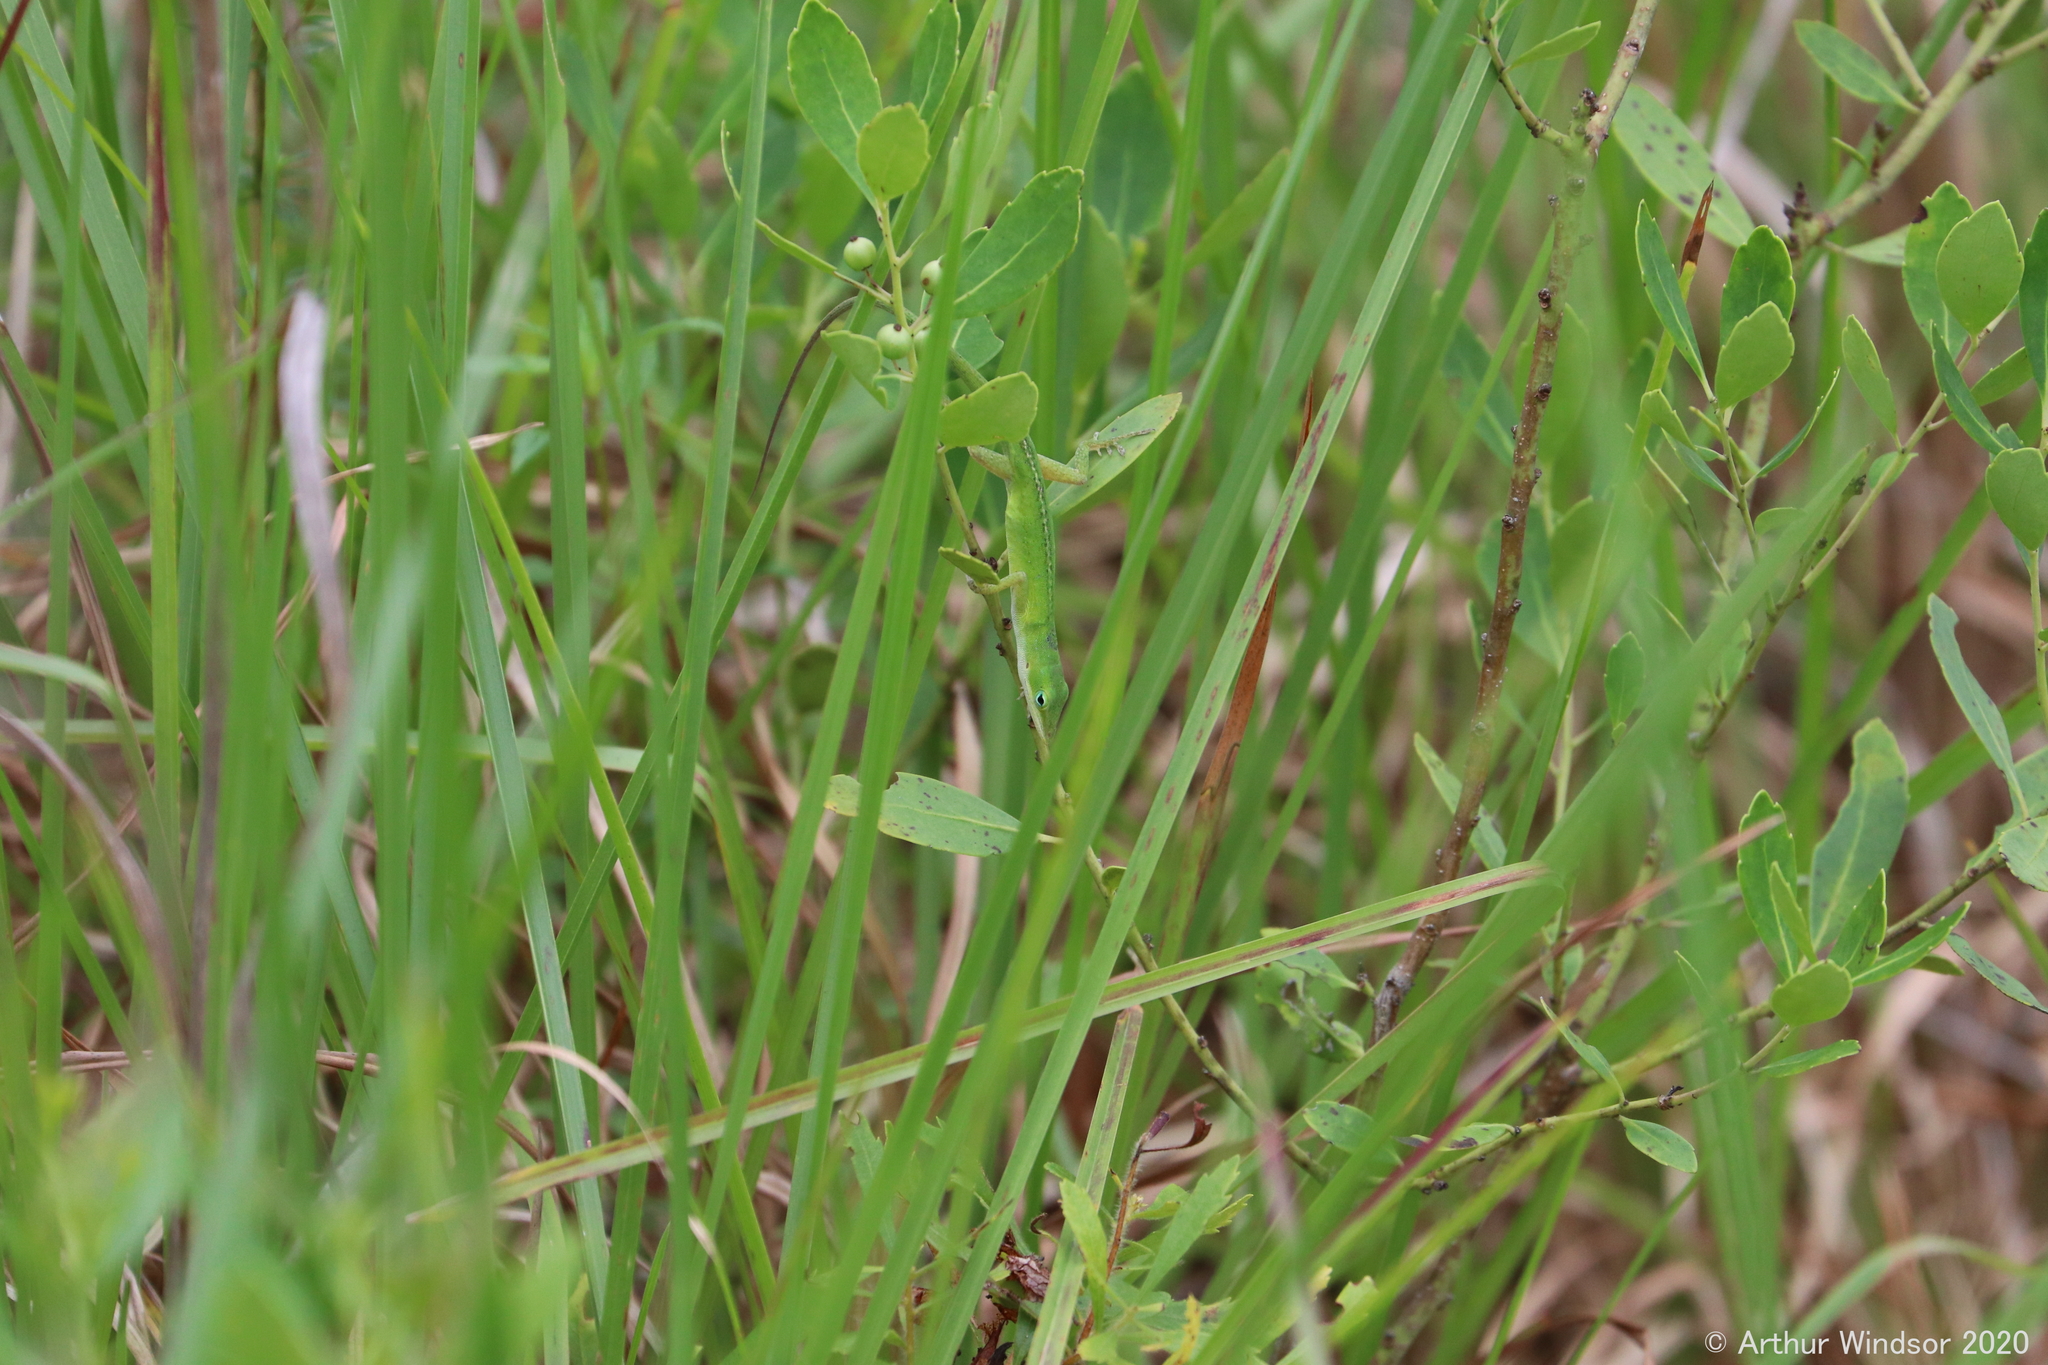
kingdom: Animalia
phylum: Chordata
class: Squamata
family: Dactyloidae
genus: Anolis
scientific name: Anolis carolinensis
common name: Green anole
